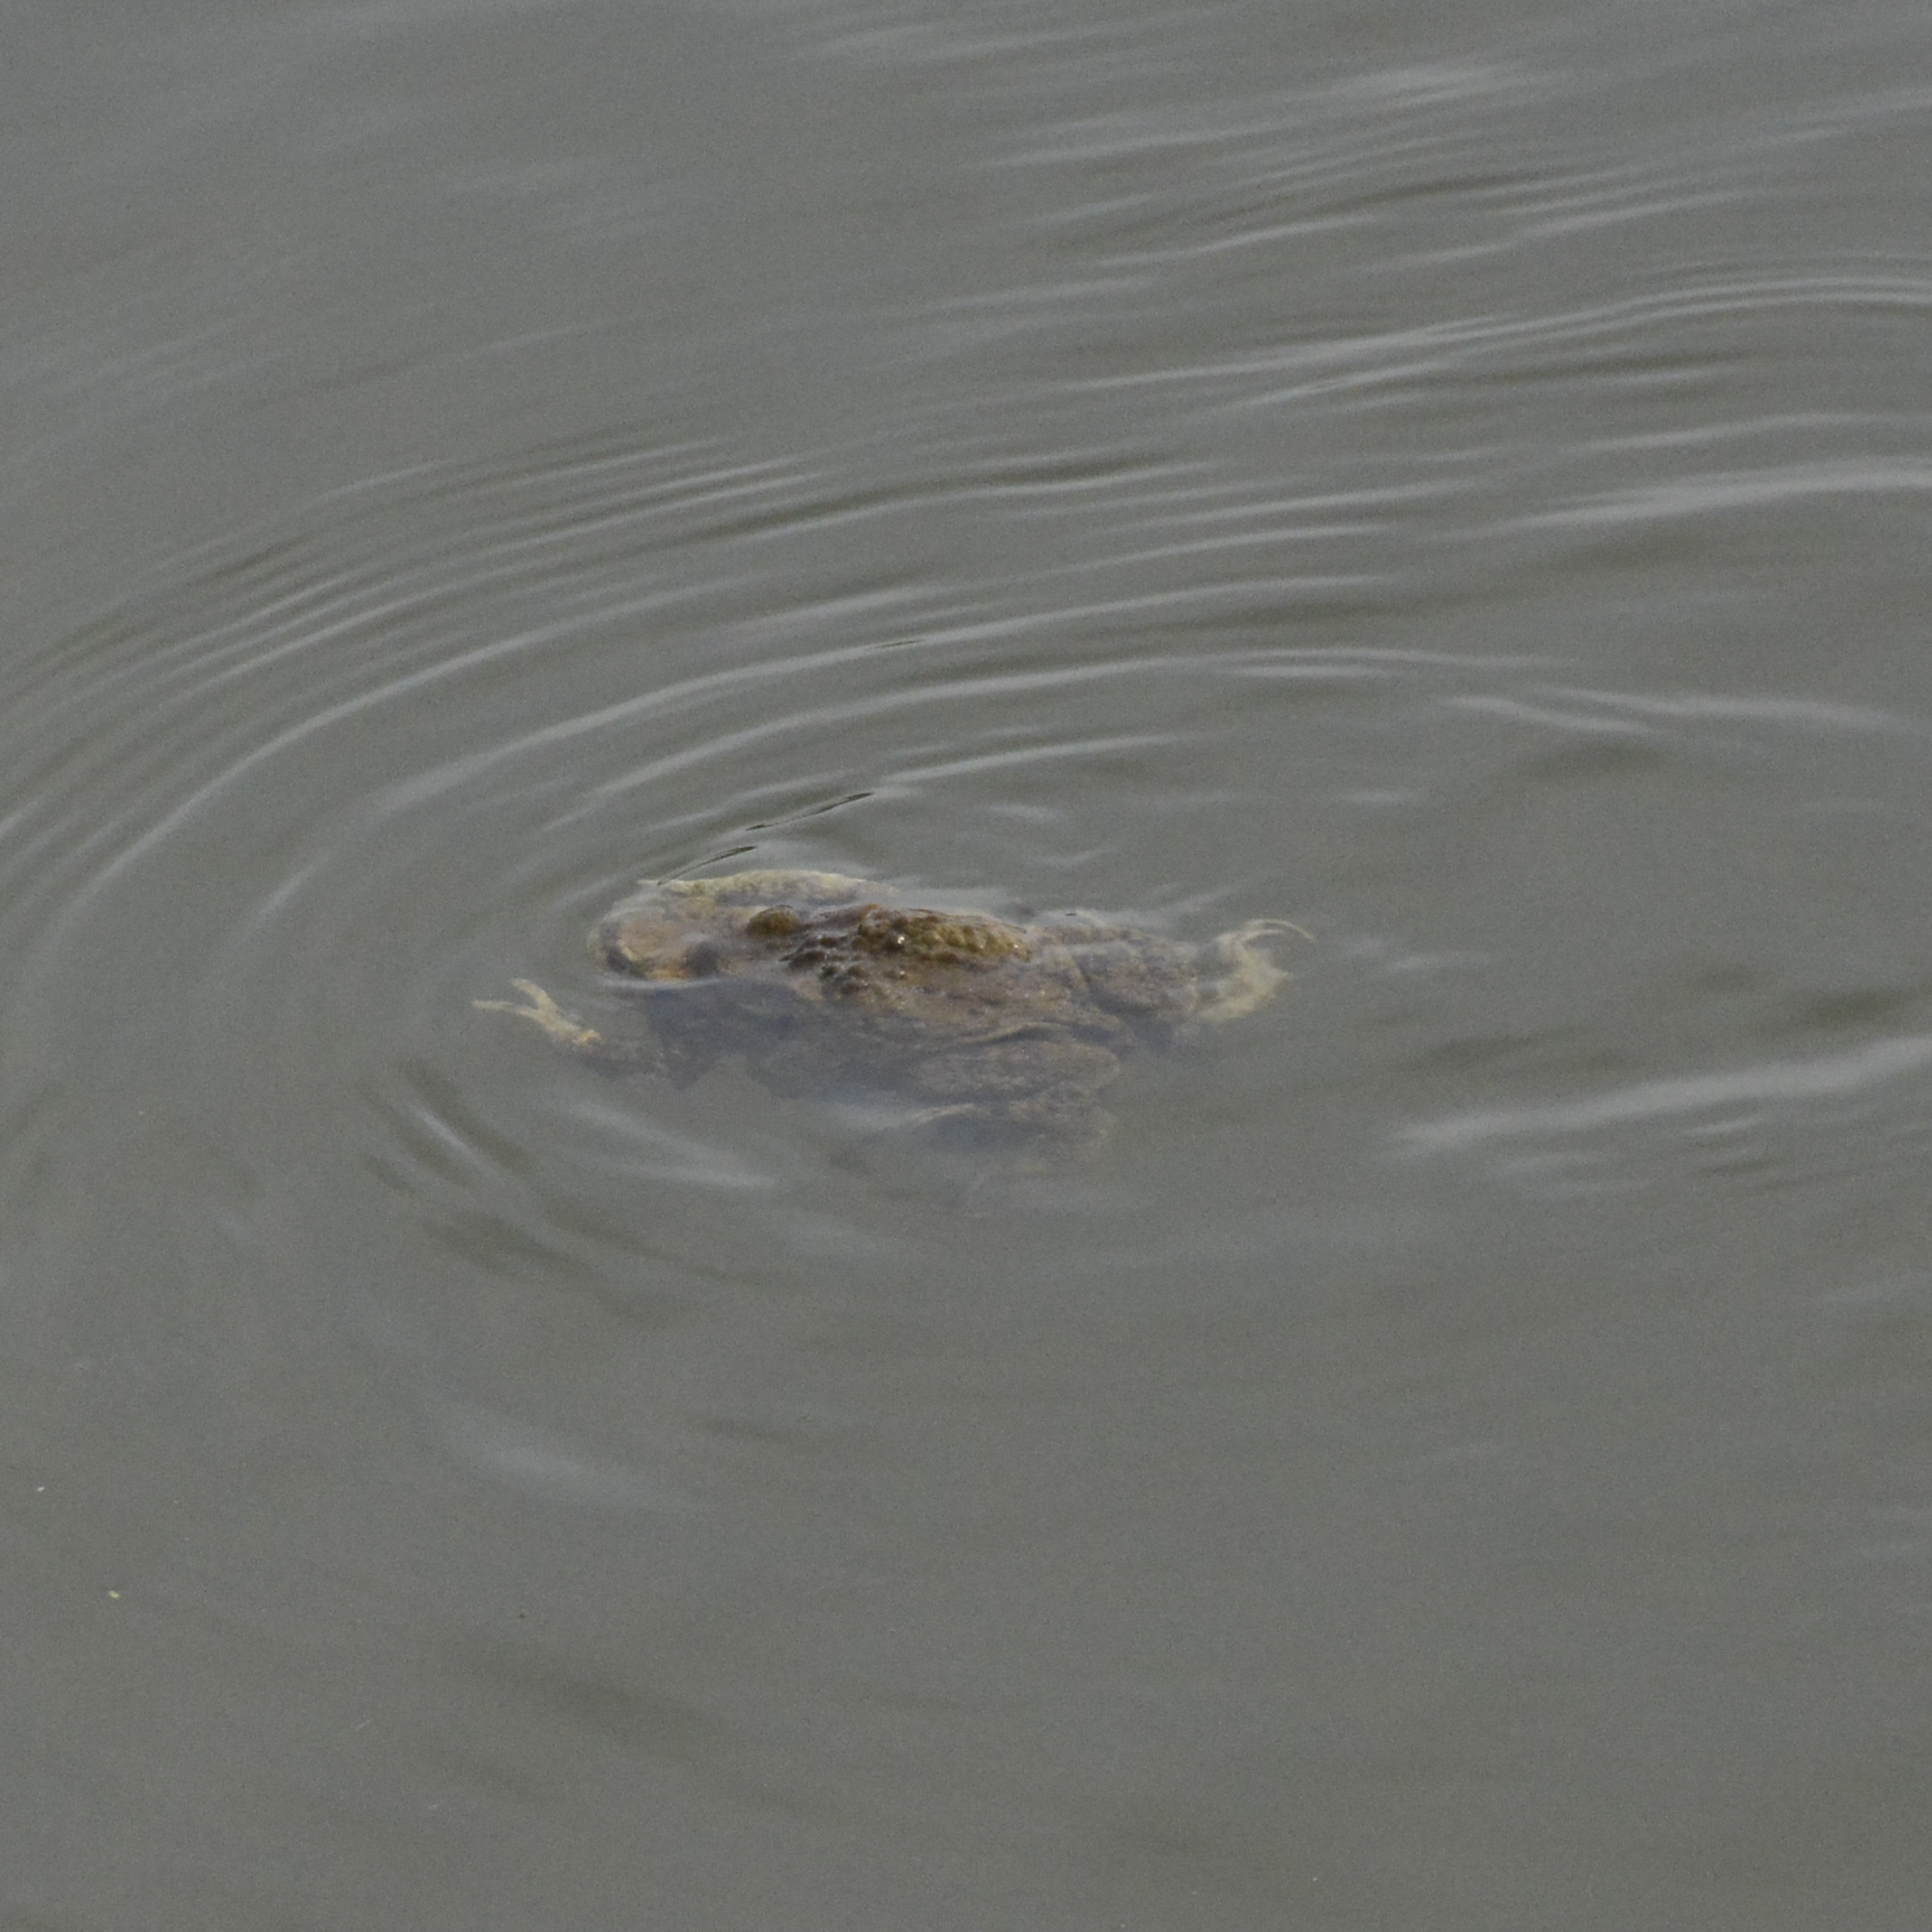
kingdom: Animalia
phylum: Chordata
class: Amphibia
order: Anura
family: Bufonidae
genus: Bufo
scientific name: Bufo bufo
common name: Common toad
